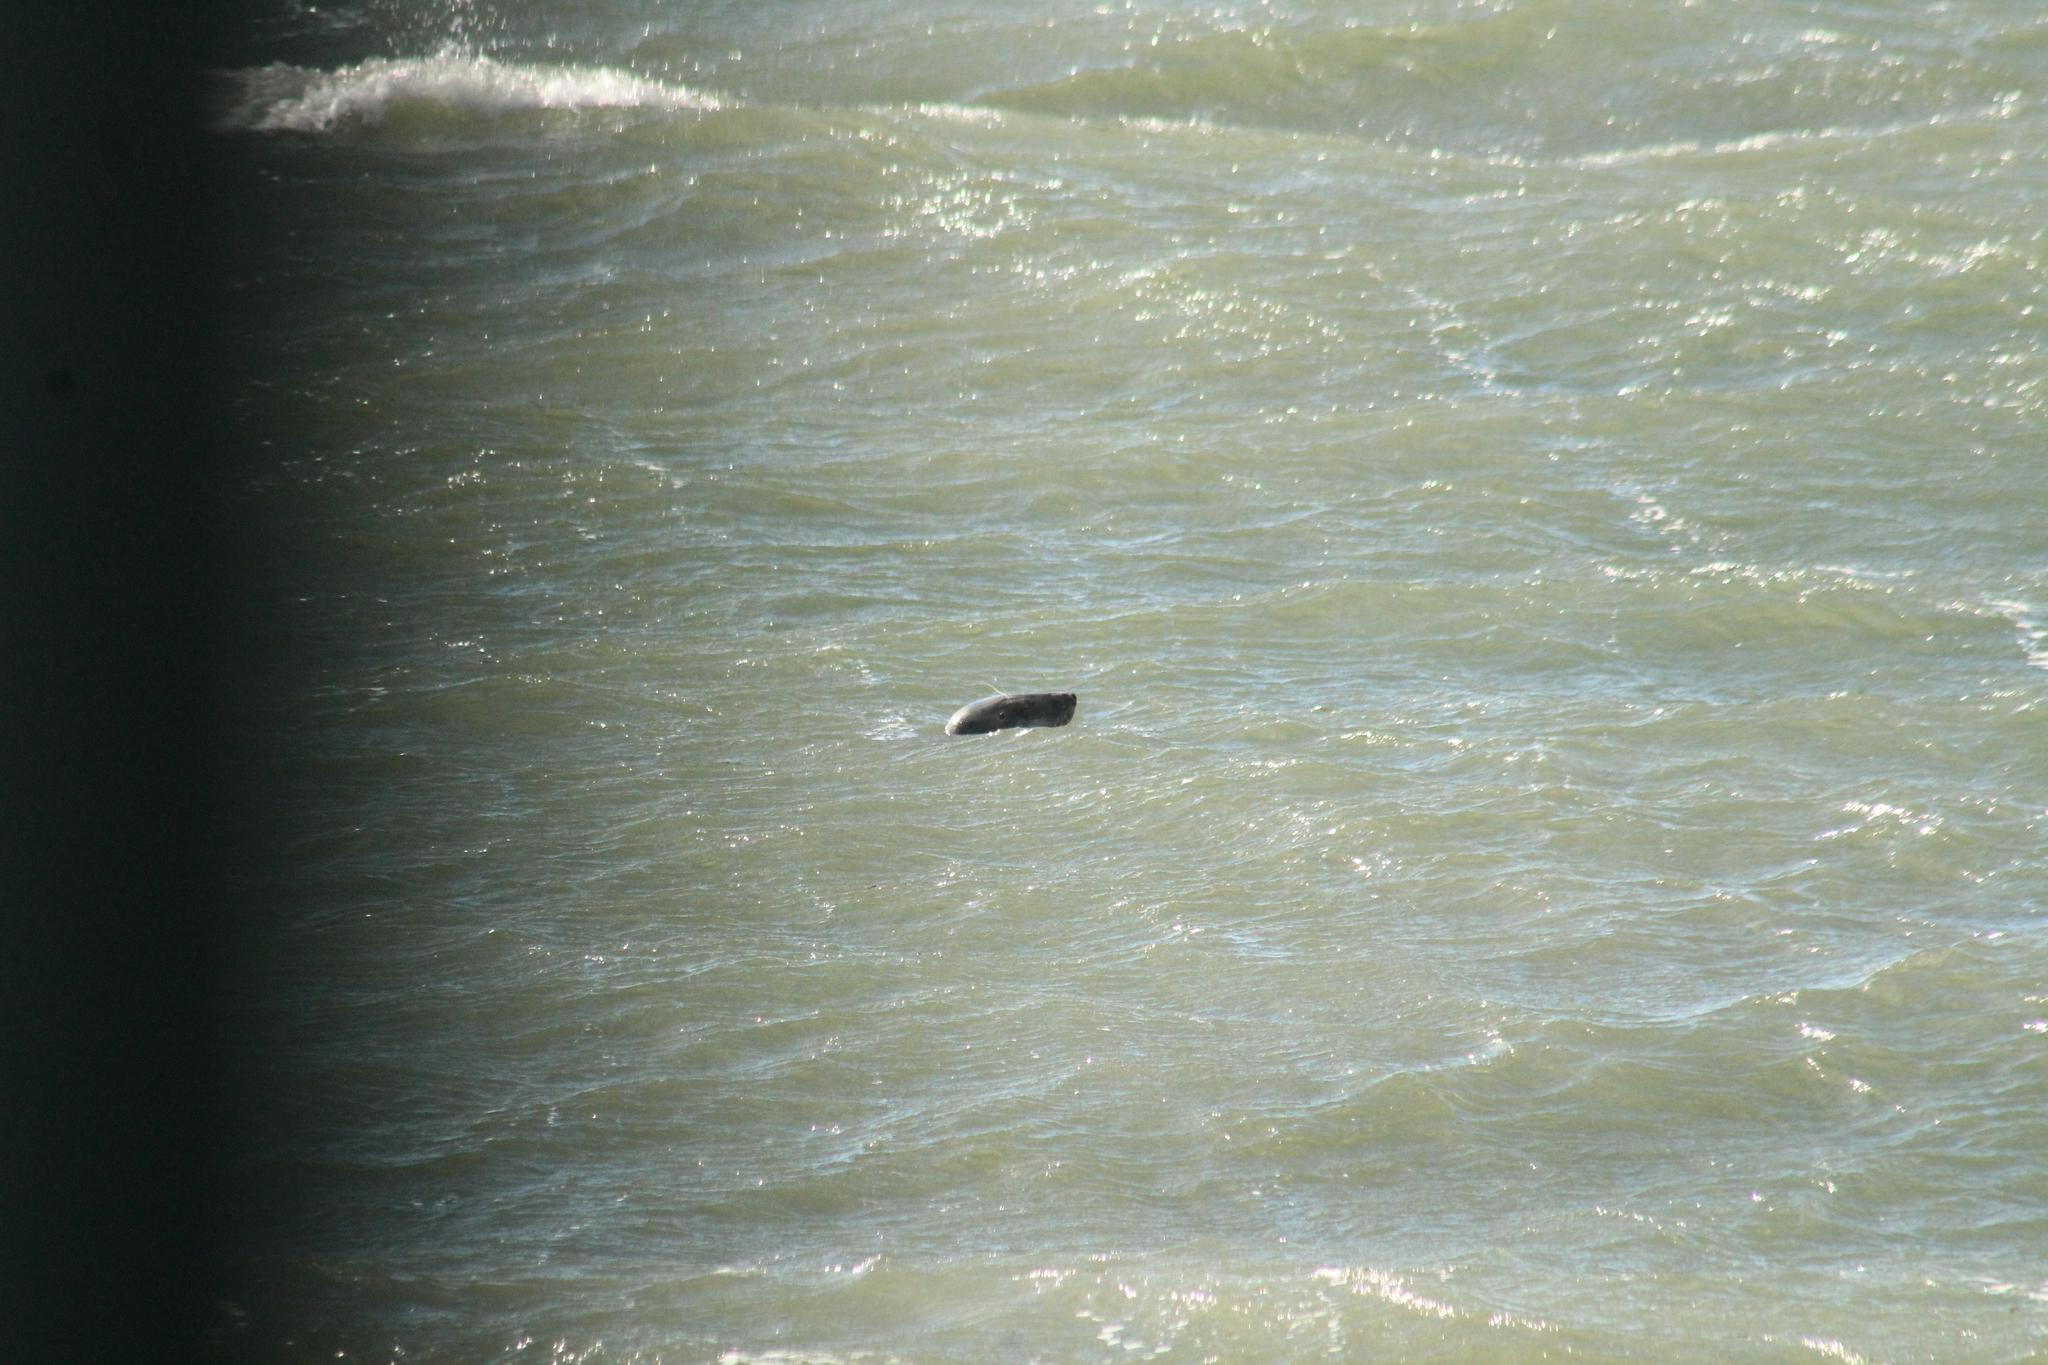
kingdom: Animalia
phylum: Chordata
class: Mammalia
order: Carnivora
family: Phocidae
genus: Halichoerus
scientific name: Halichoerus grypus
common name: Grey seal
